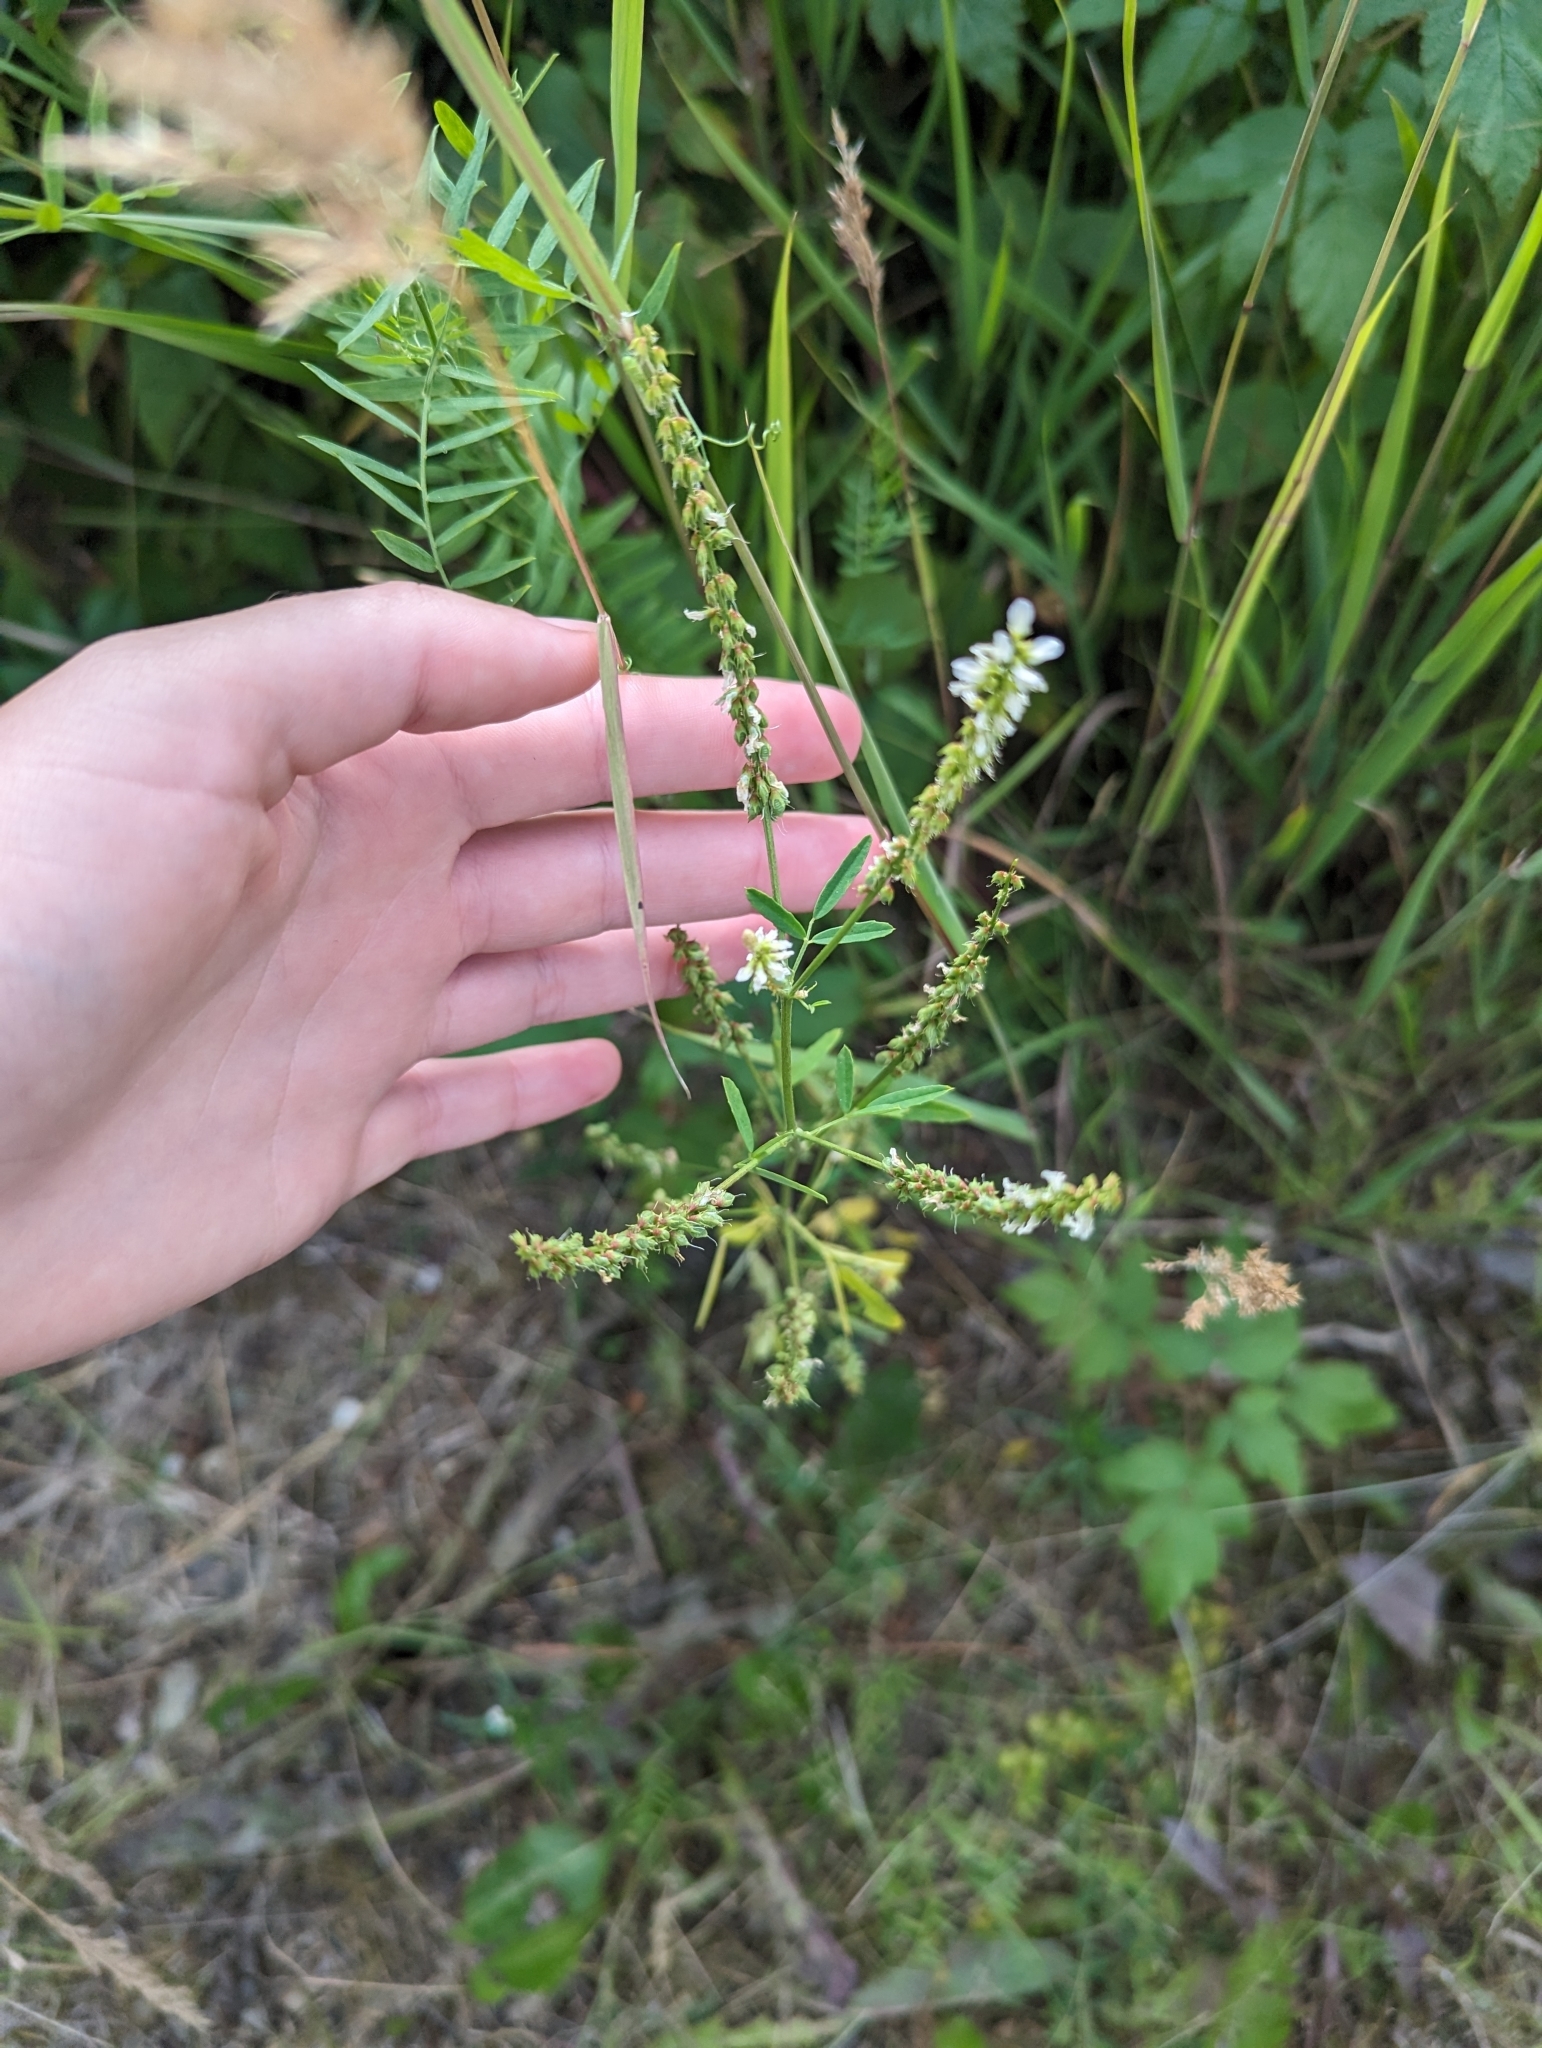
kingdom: Plantae
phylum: Tracheophyta
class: Magnoliopsida
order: Fabales
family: Fabaceae
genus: Melilotus
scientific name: Melilotus albus
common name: White melilot
